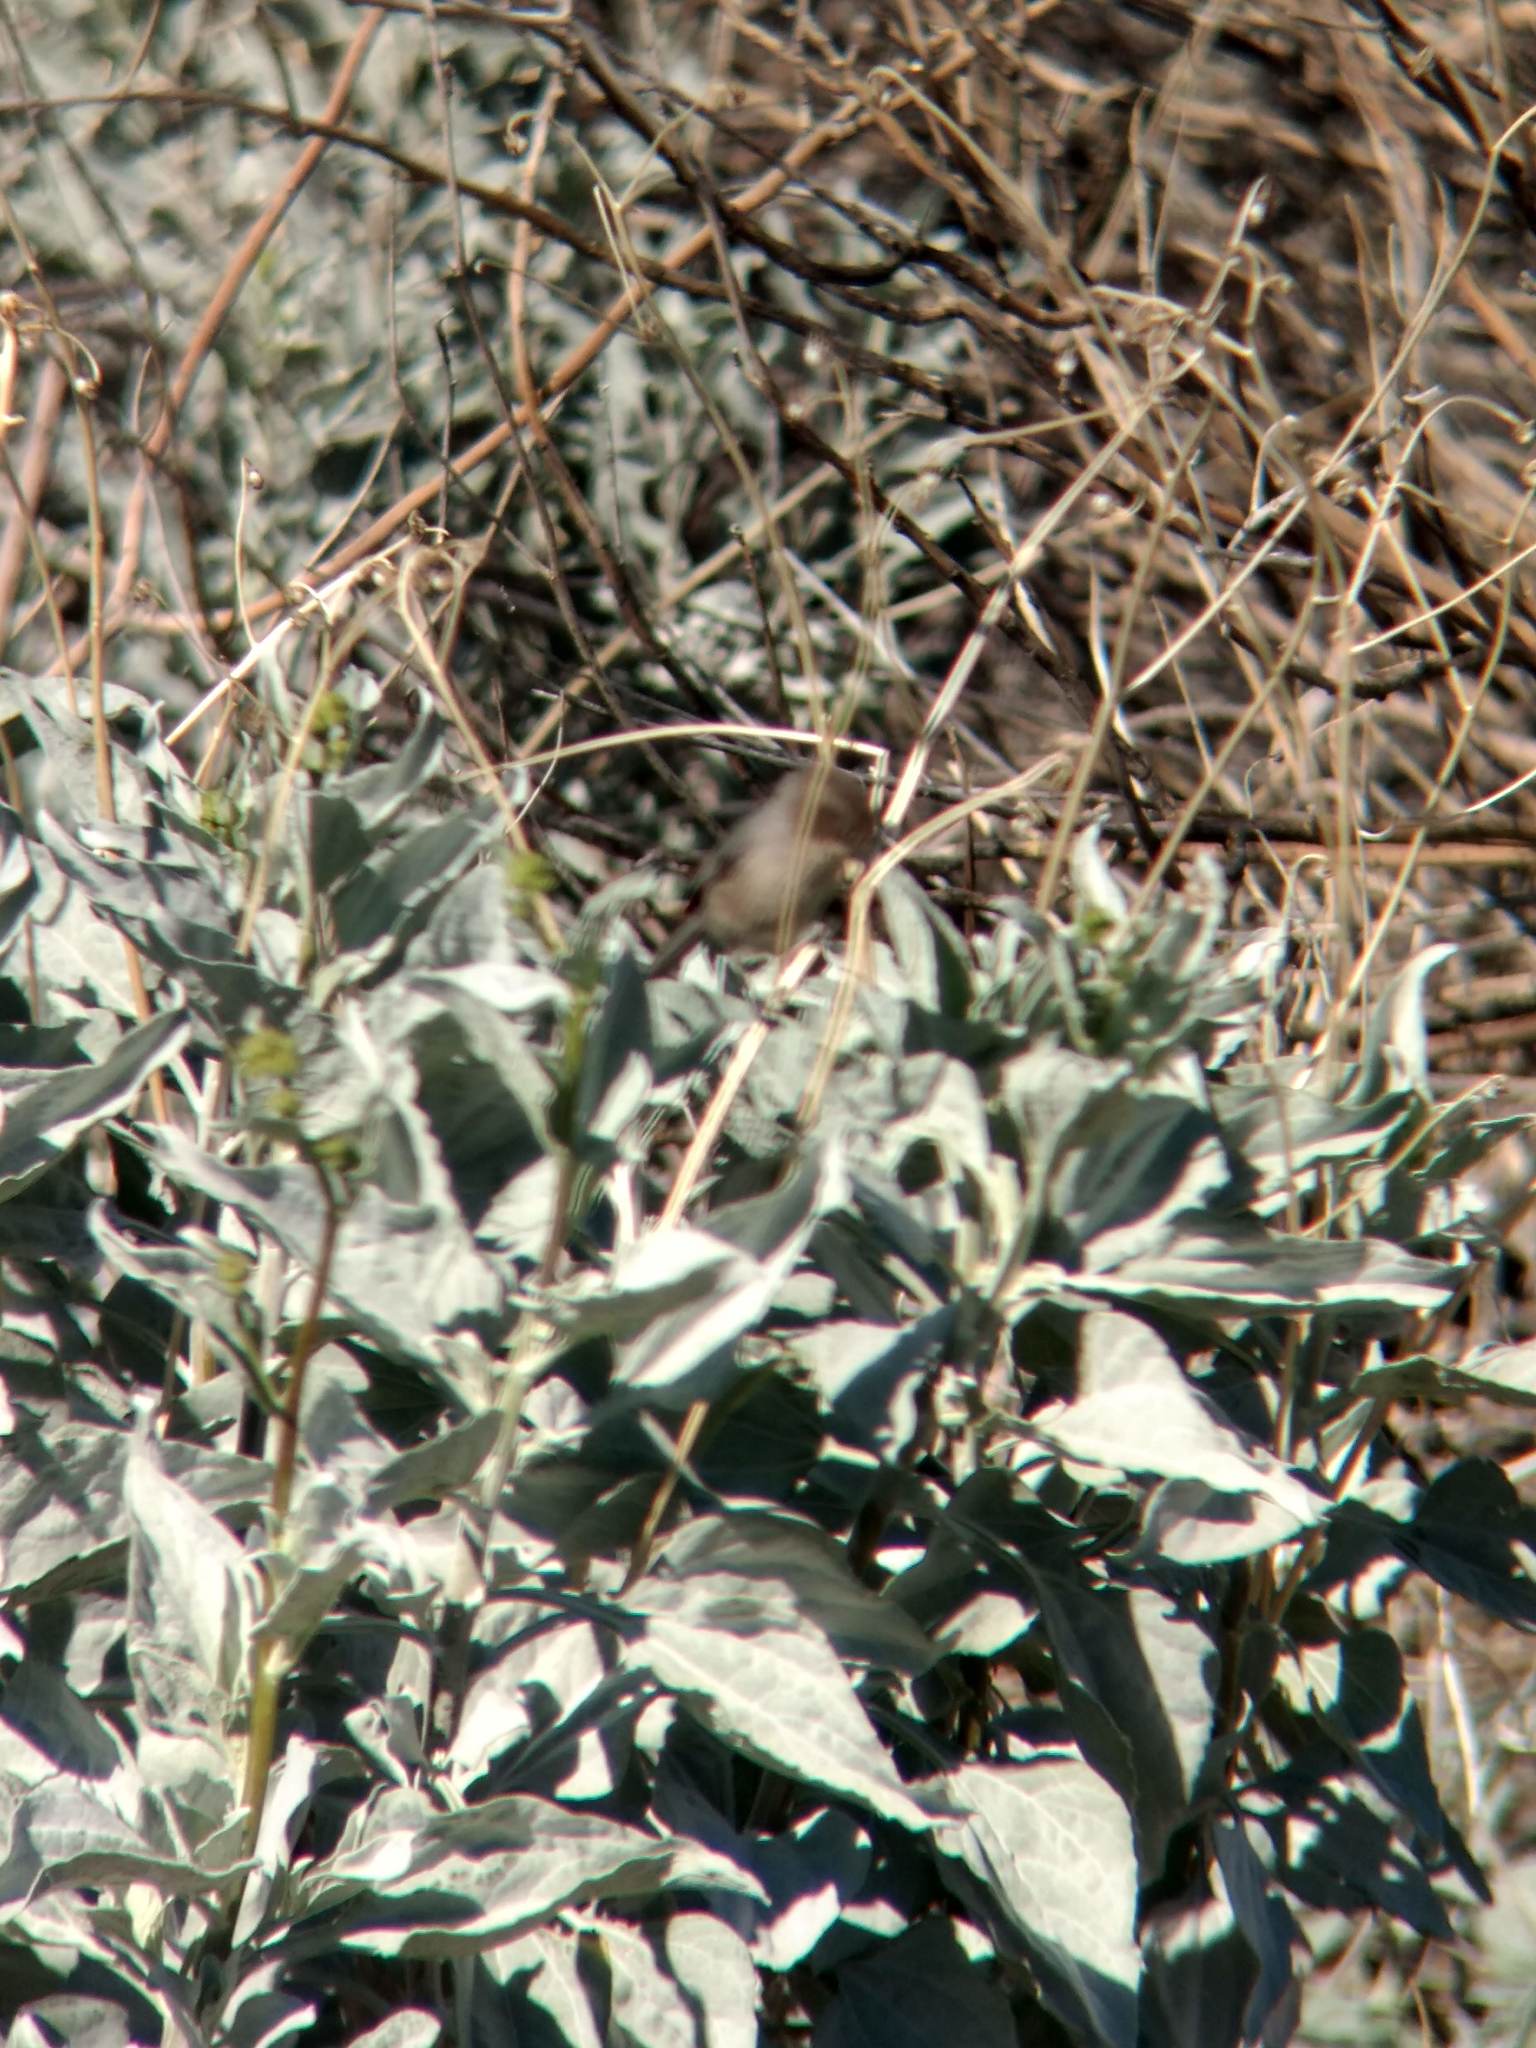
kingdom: Animalia
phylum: Chordata
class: Aves
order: Passeriformes
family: Aegithalidae
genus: Psaltriparus
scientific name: Psaltriparus minimus
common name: American bushtit
